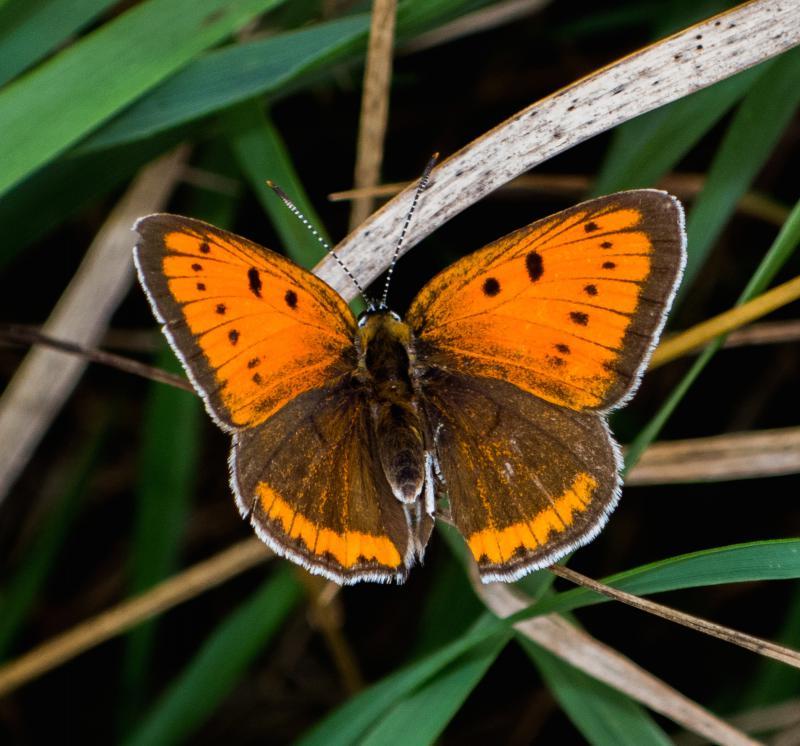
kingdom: Animalia
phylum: Arthropoda
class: Insecta
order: Lepidoptera
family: Lycaenidae
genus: Lycaena
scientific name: Lycaena dispar
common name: Large copper
